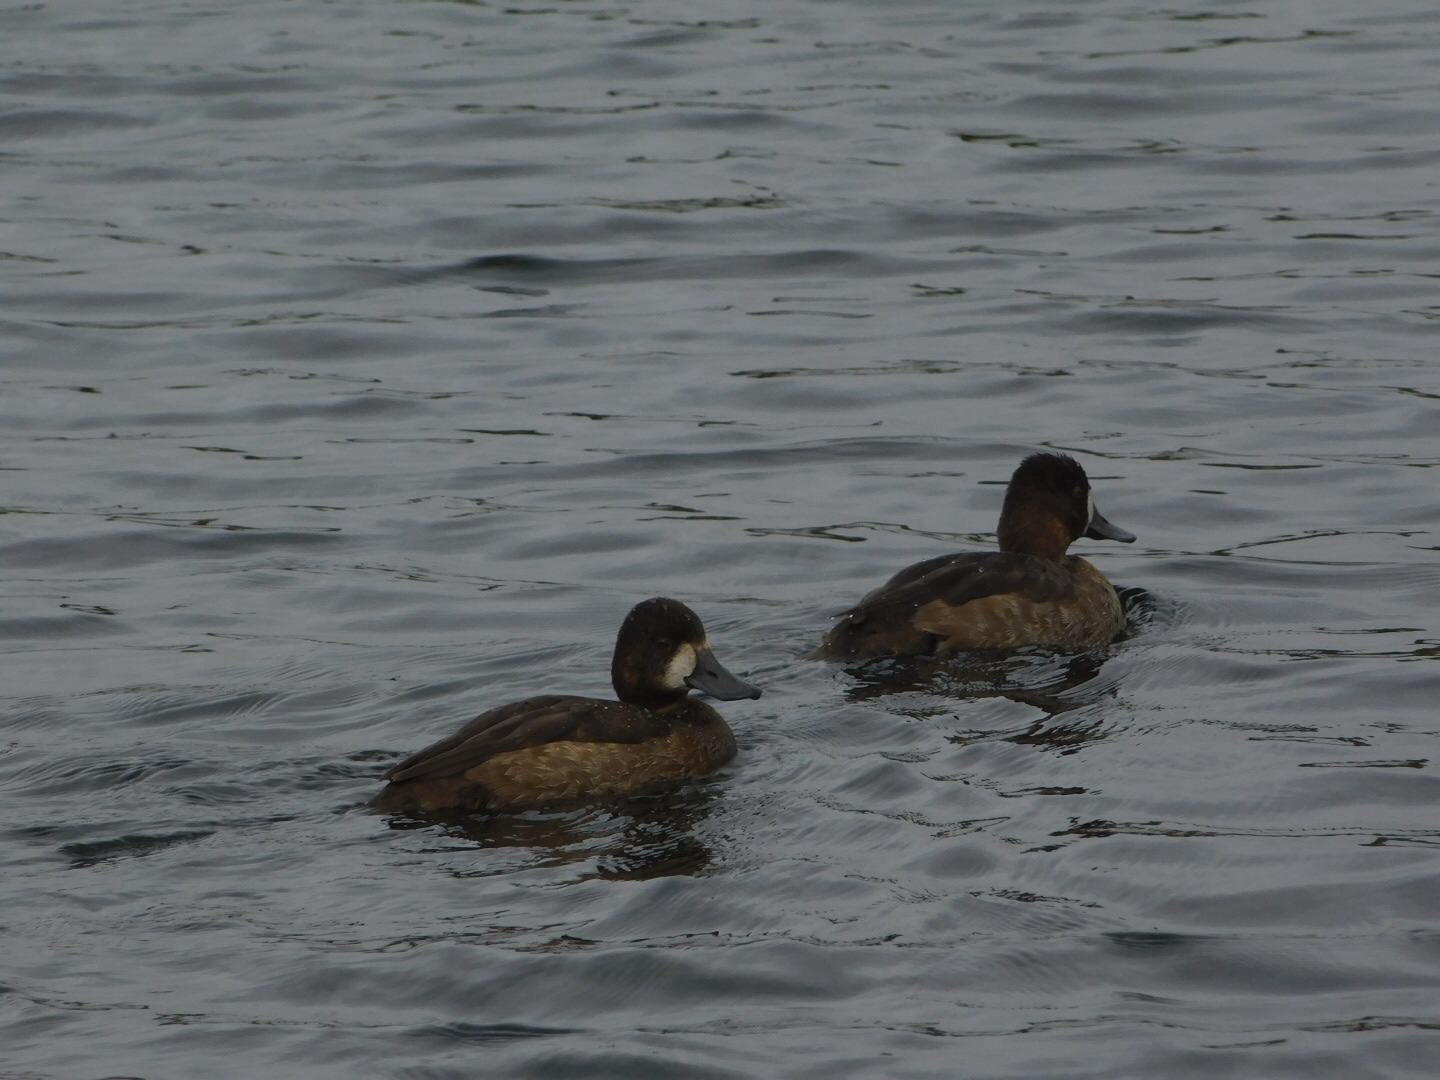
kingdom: Animalia
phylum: Chordata
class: Aves
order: Anseriformes
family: Anatidae
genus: Aythya
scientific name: Aythya affinis
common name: Lesser scaup
